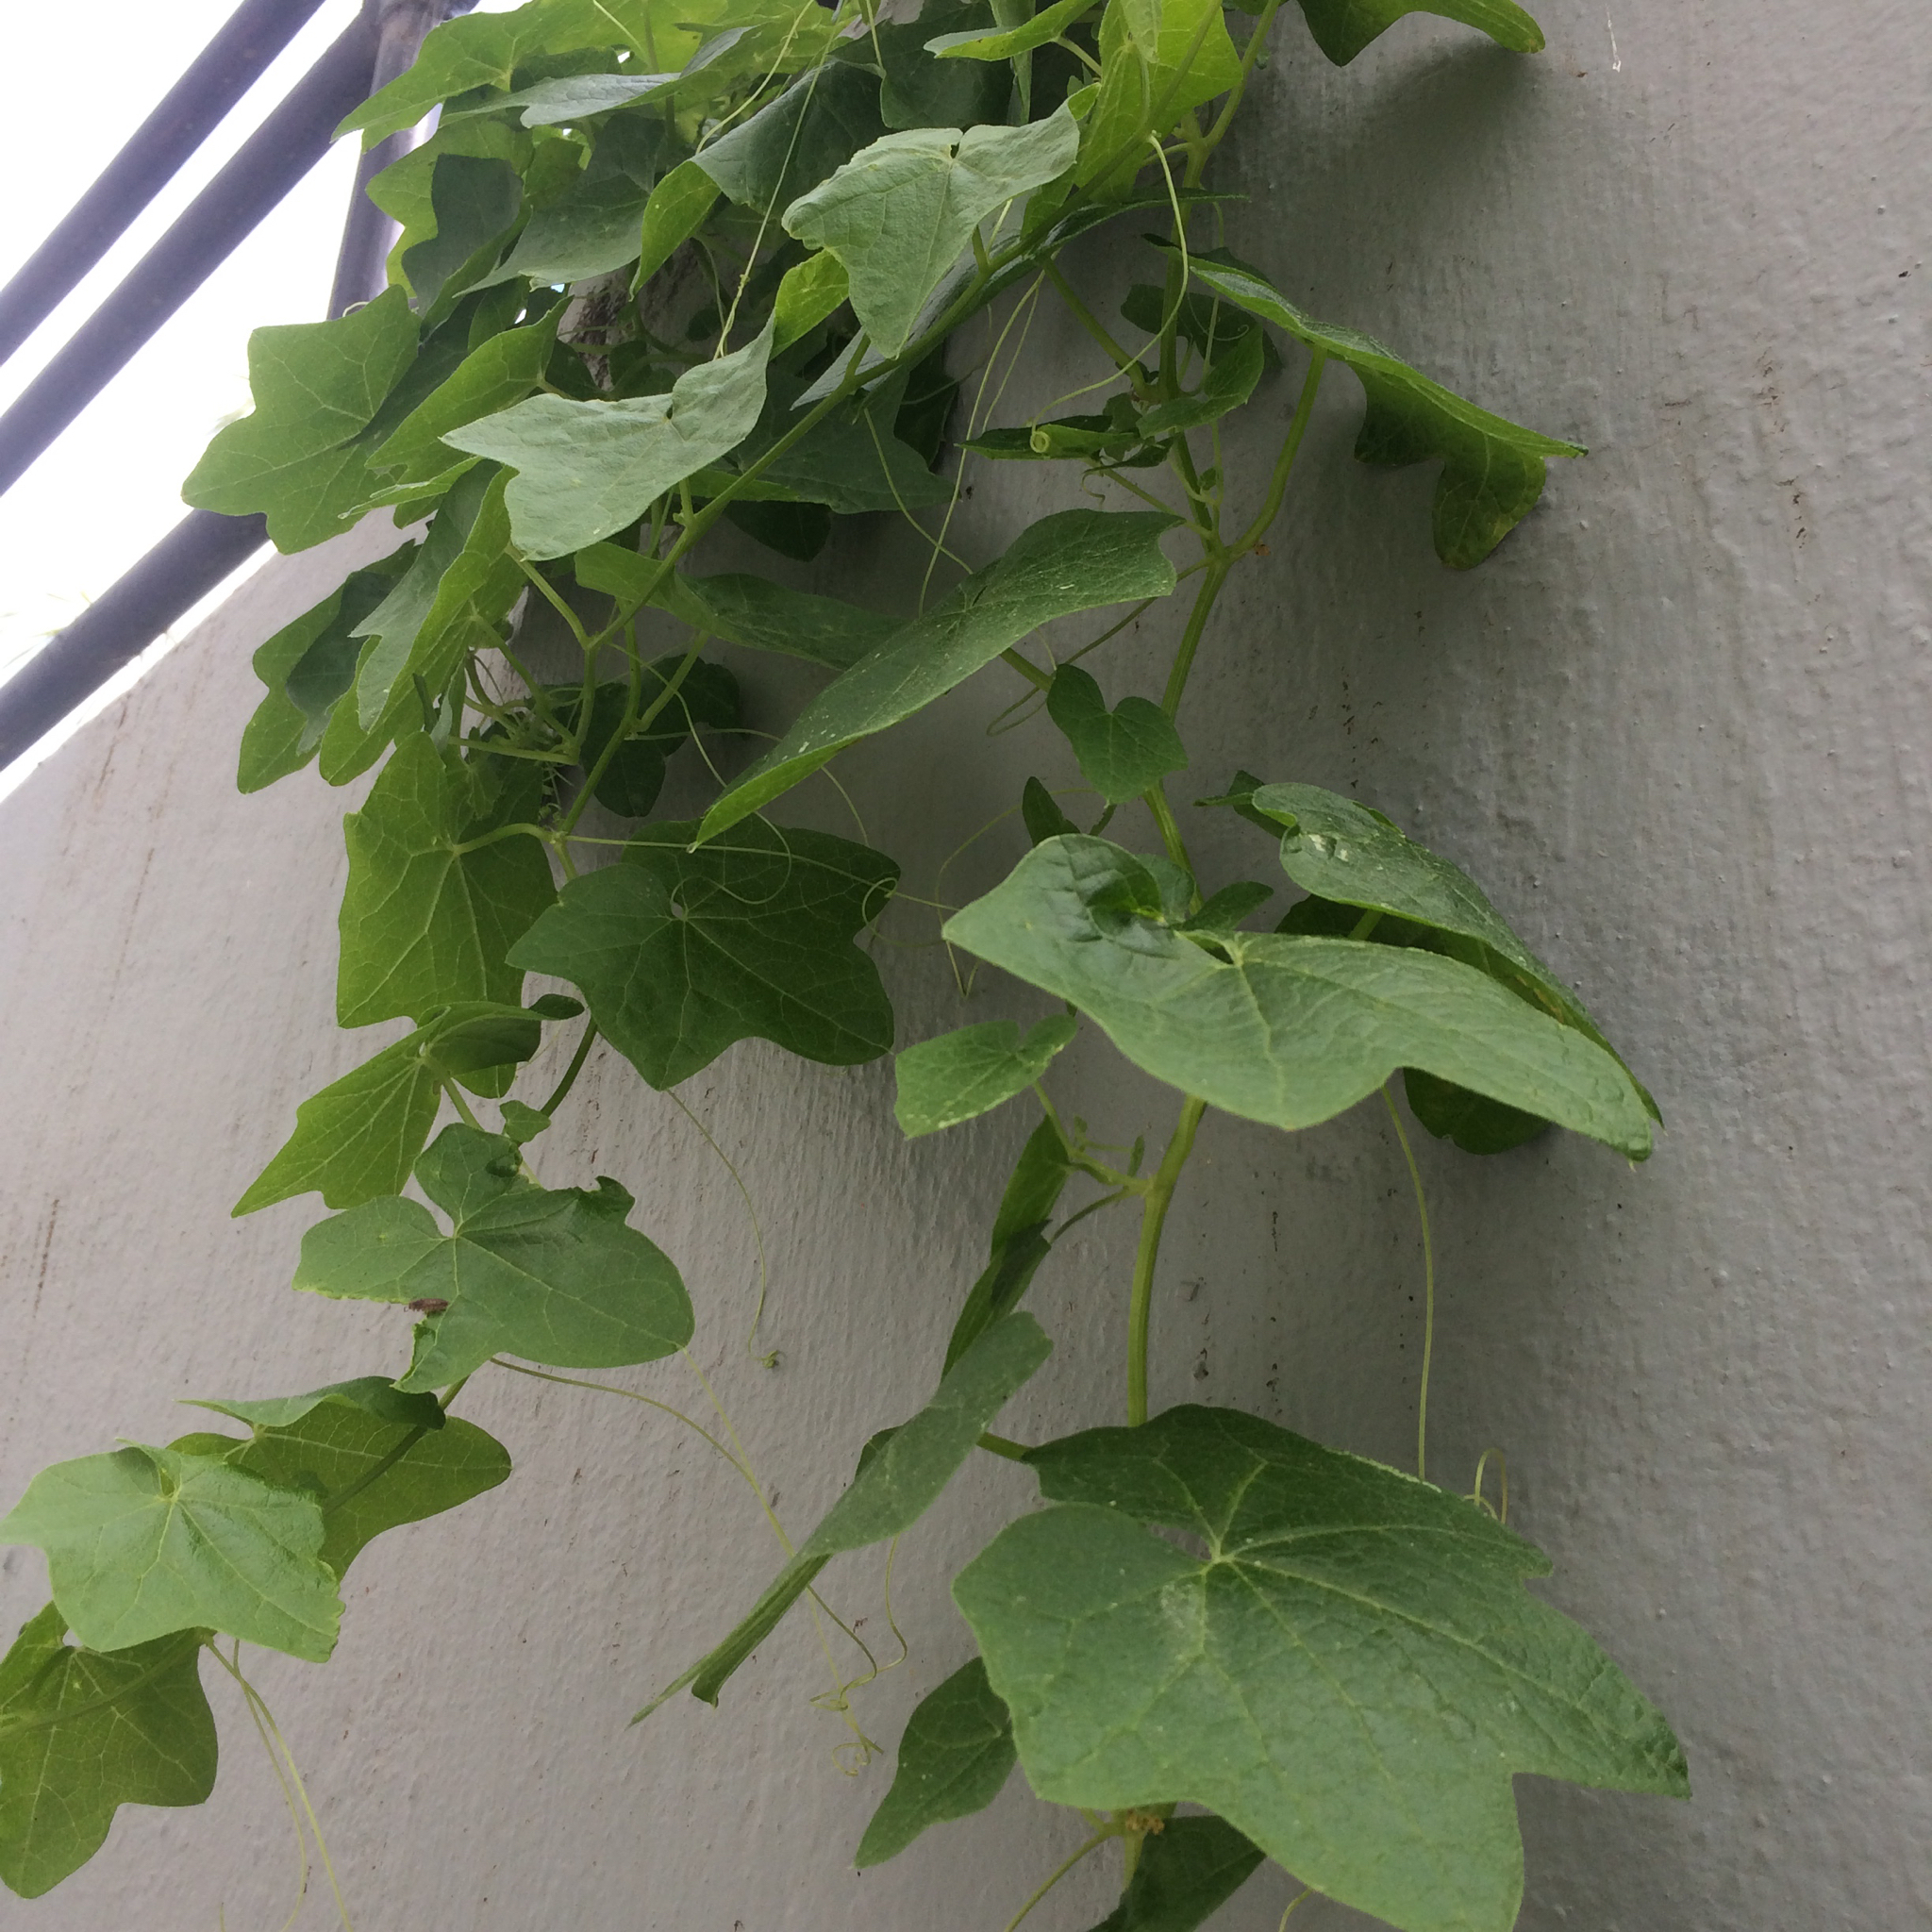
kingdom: Plantae
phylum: Tracheophyta
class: Magnoliopsida
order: Cucurbitales
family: Cucurbitaceae
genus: Marah
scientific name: Marah fabacea
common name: California manroot
